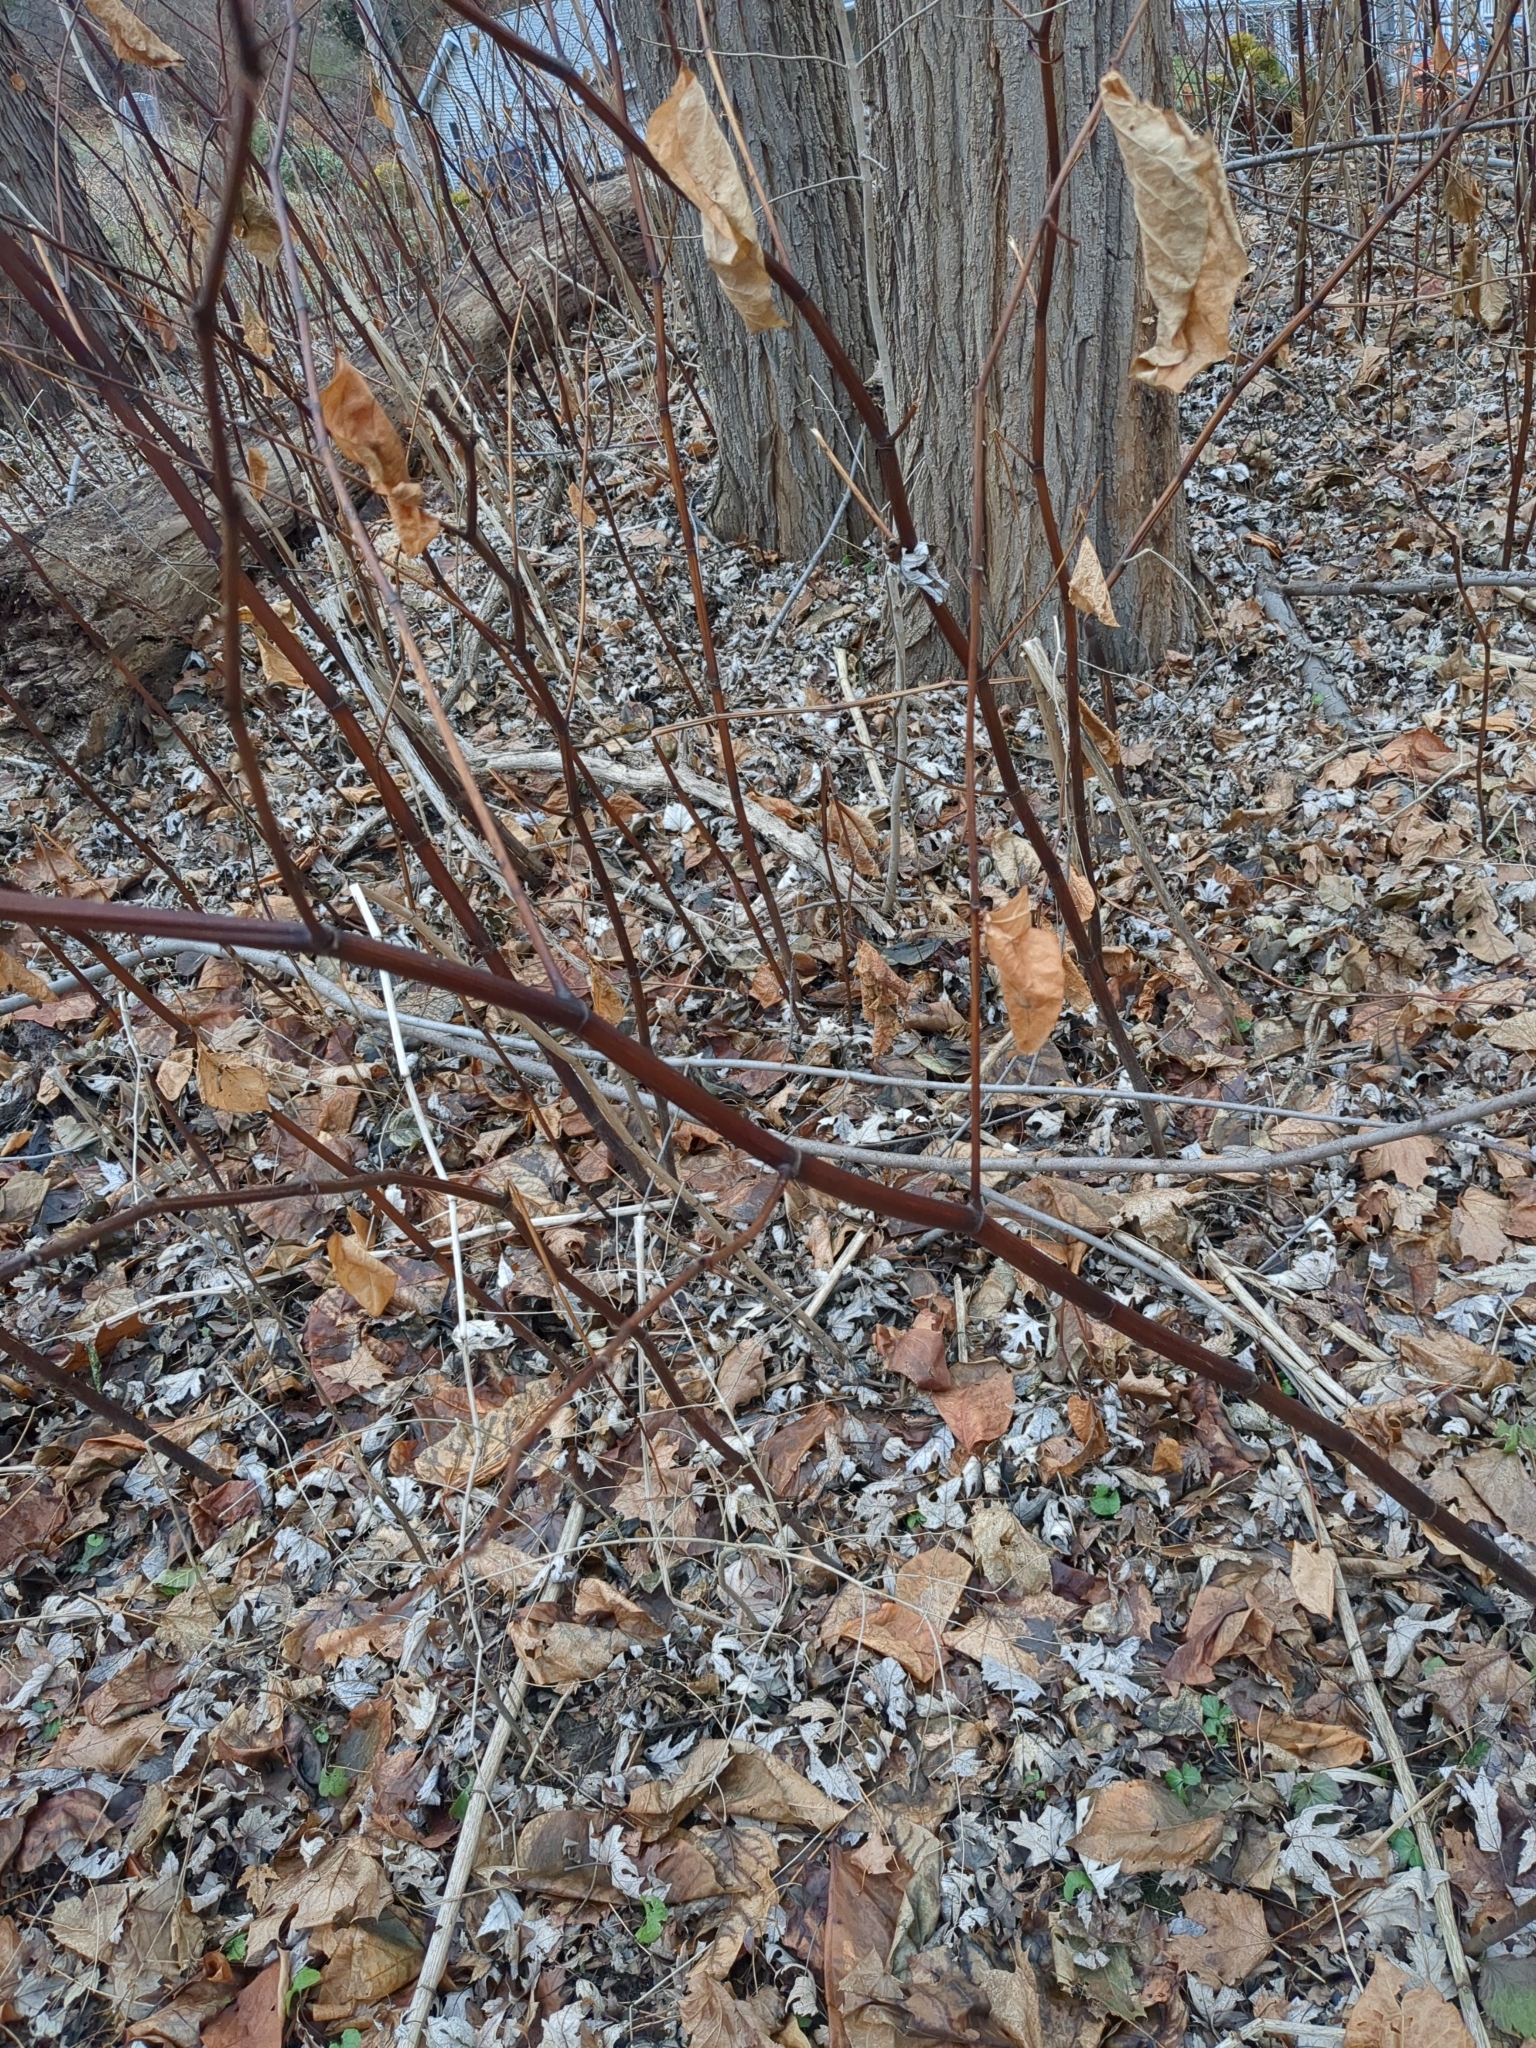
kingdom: Plantae
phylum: Tracheophyta
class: Magnoliopsida
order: Caryophyllales
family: Polygonaceae
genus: Reynoutria
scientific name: Reynoutria japonica
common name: Japanese knotweed
